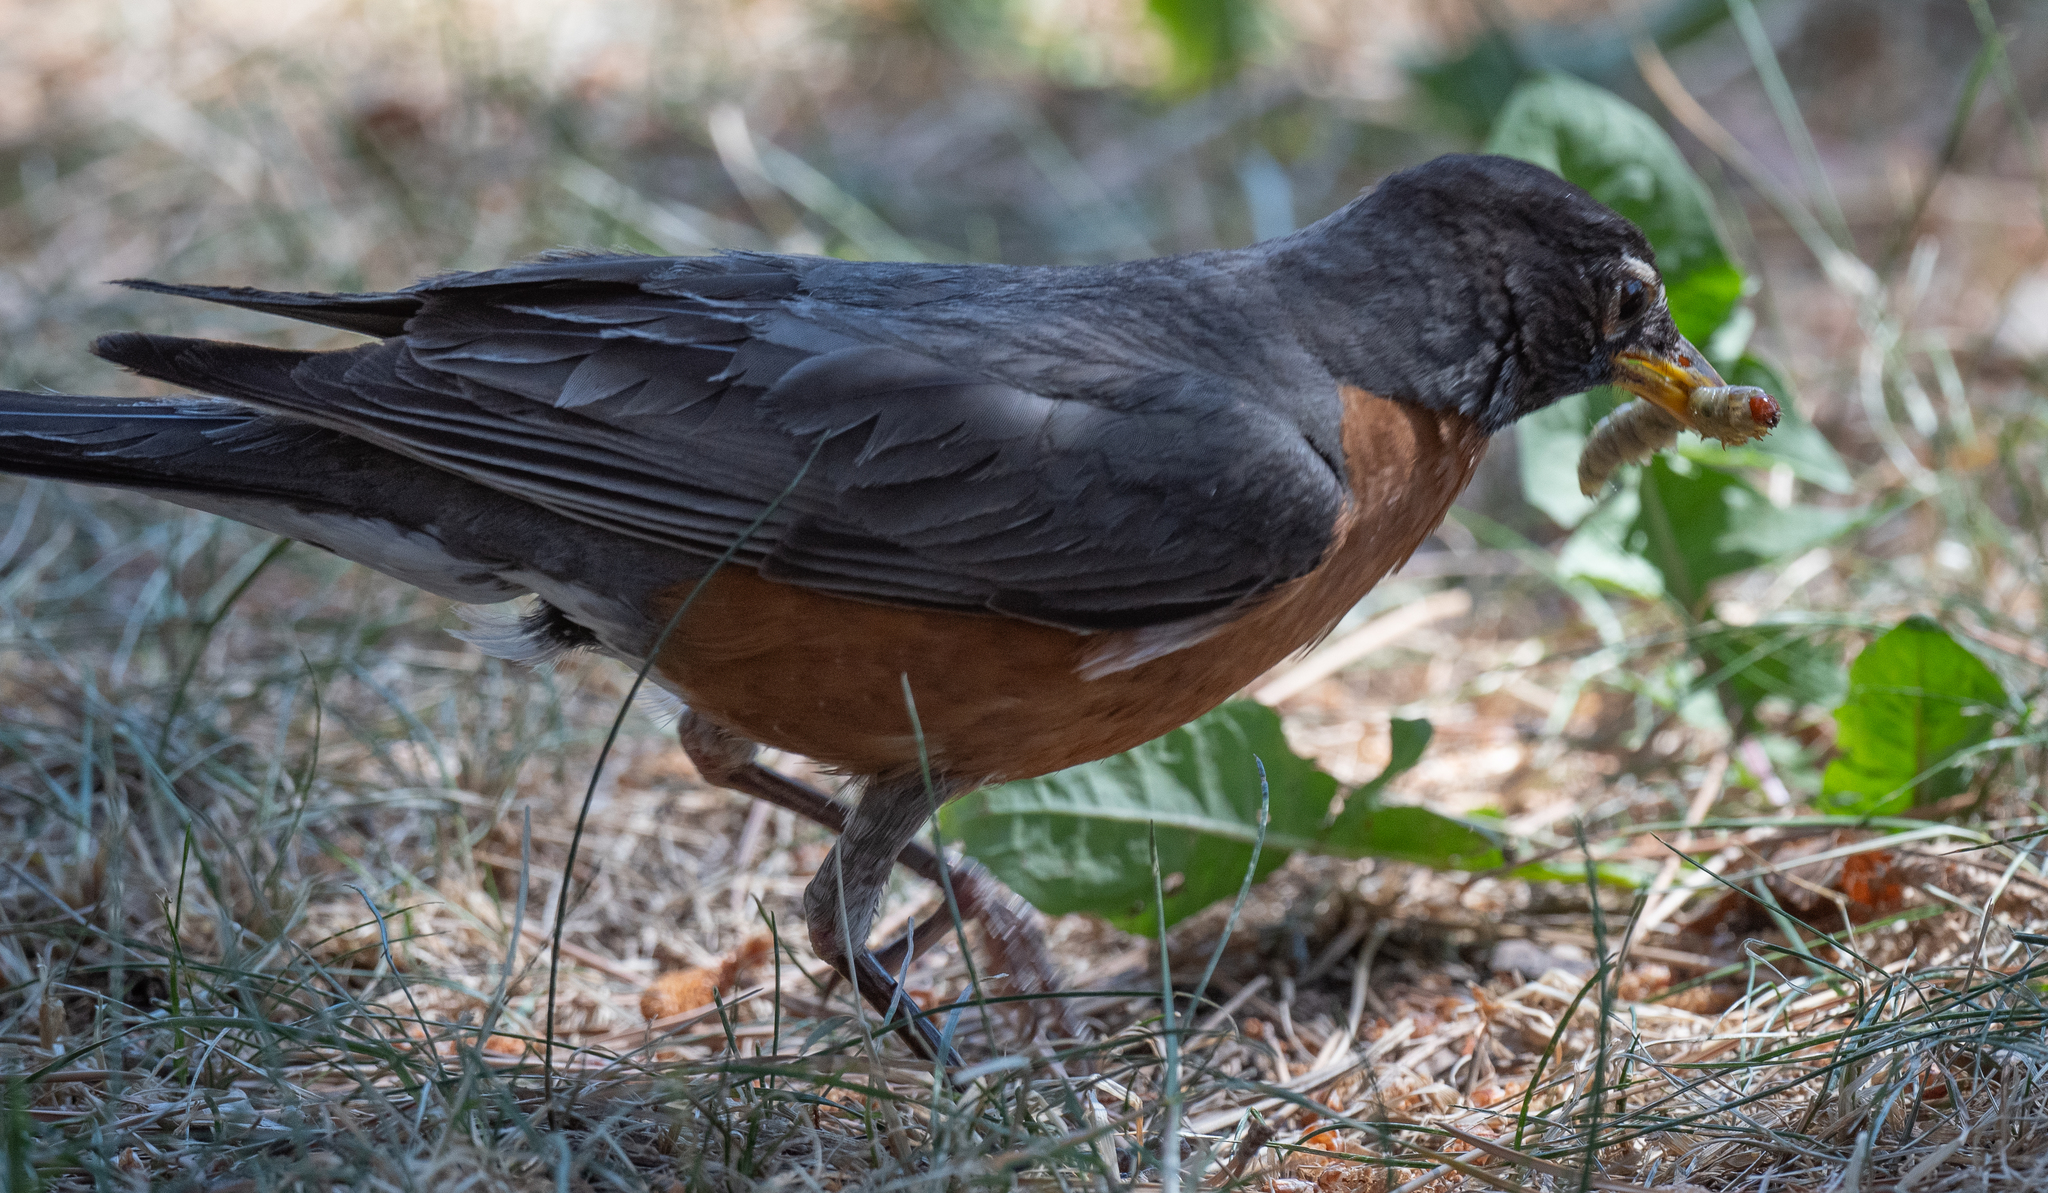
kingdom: Animalia
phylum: Chordata
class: Aves
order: Passeriformes
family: Turdidae
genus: Turdus
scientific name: Turdus migratorius
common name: American robin
